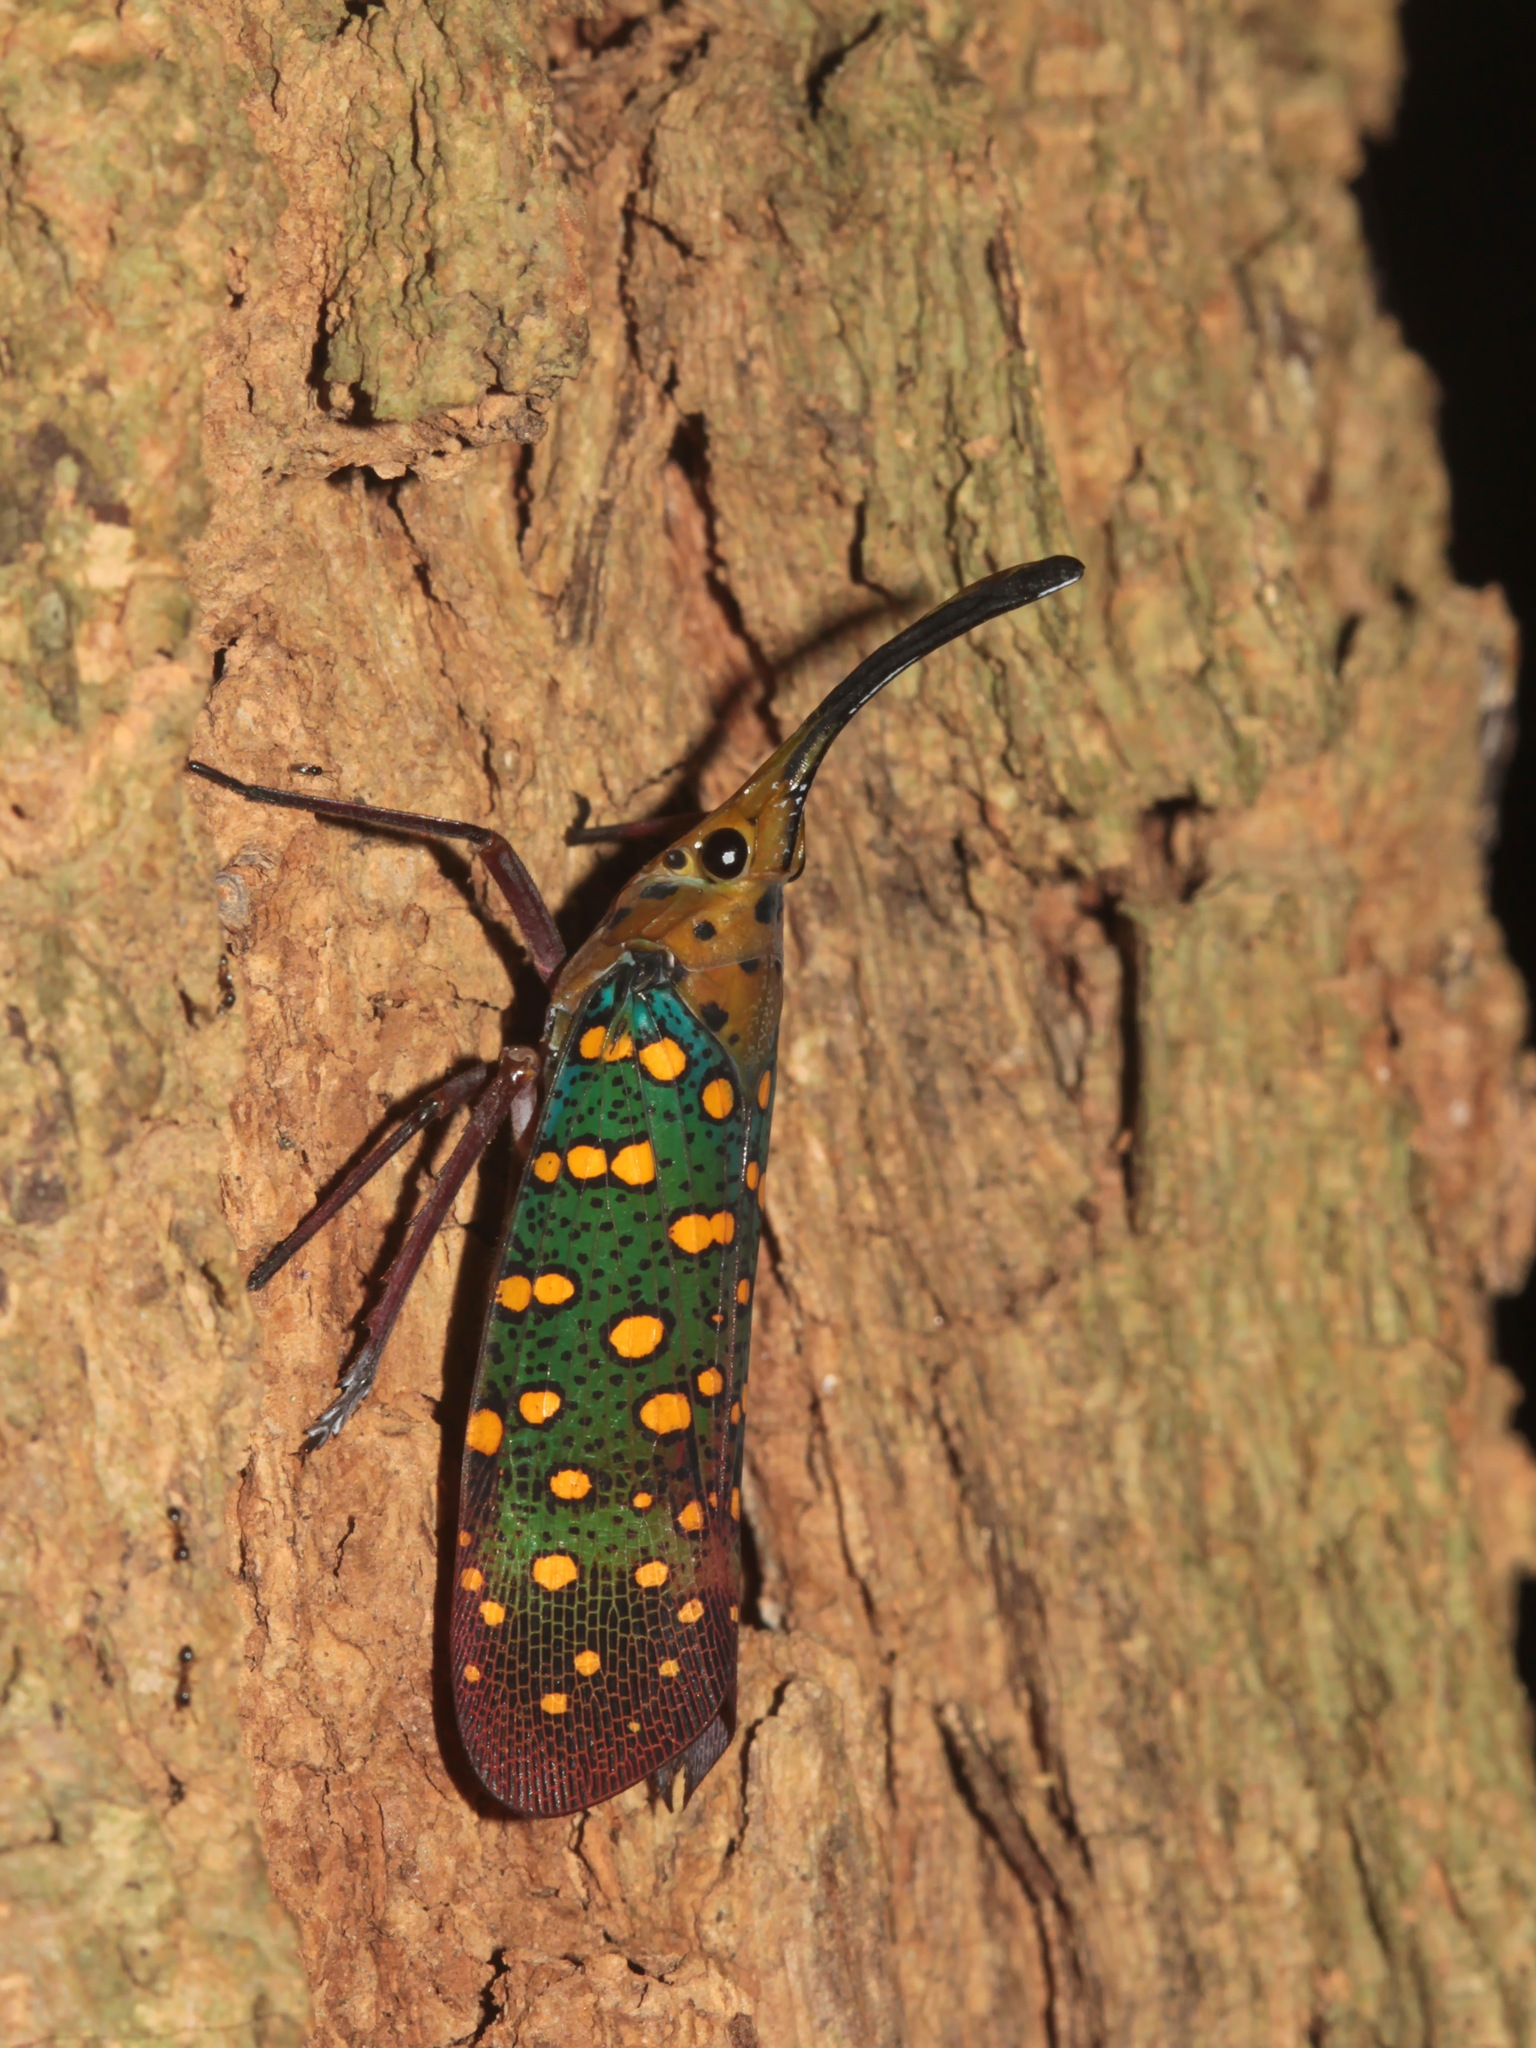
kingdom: Animalia
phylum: Arthropoda
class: Insecta
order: Hemiptera
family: Fulgoridae
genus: Saiva
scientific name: Saiva gemmata
